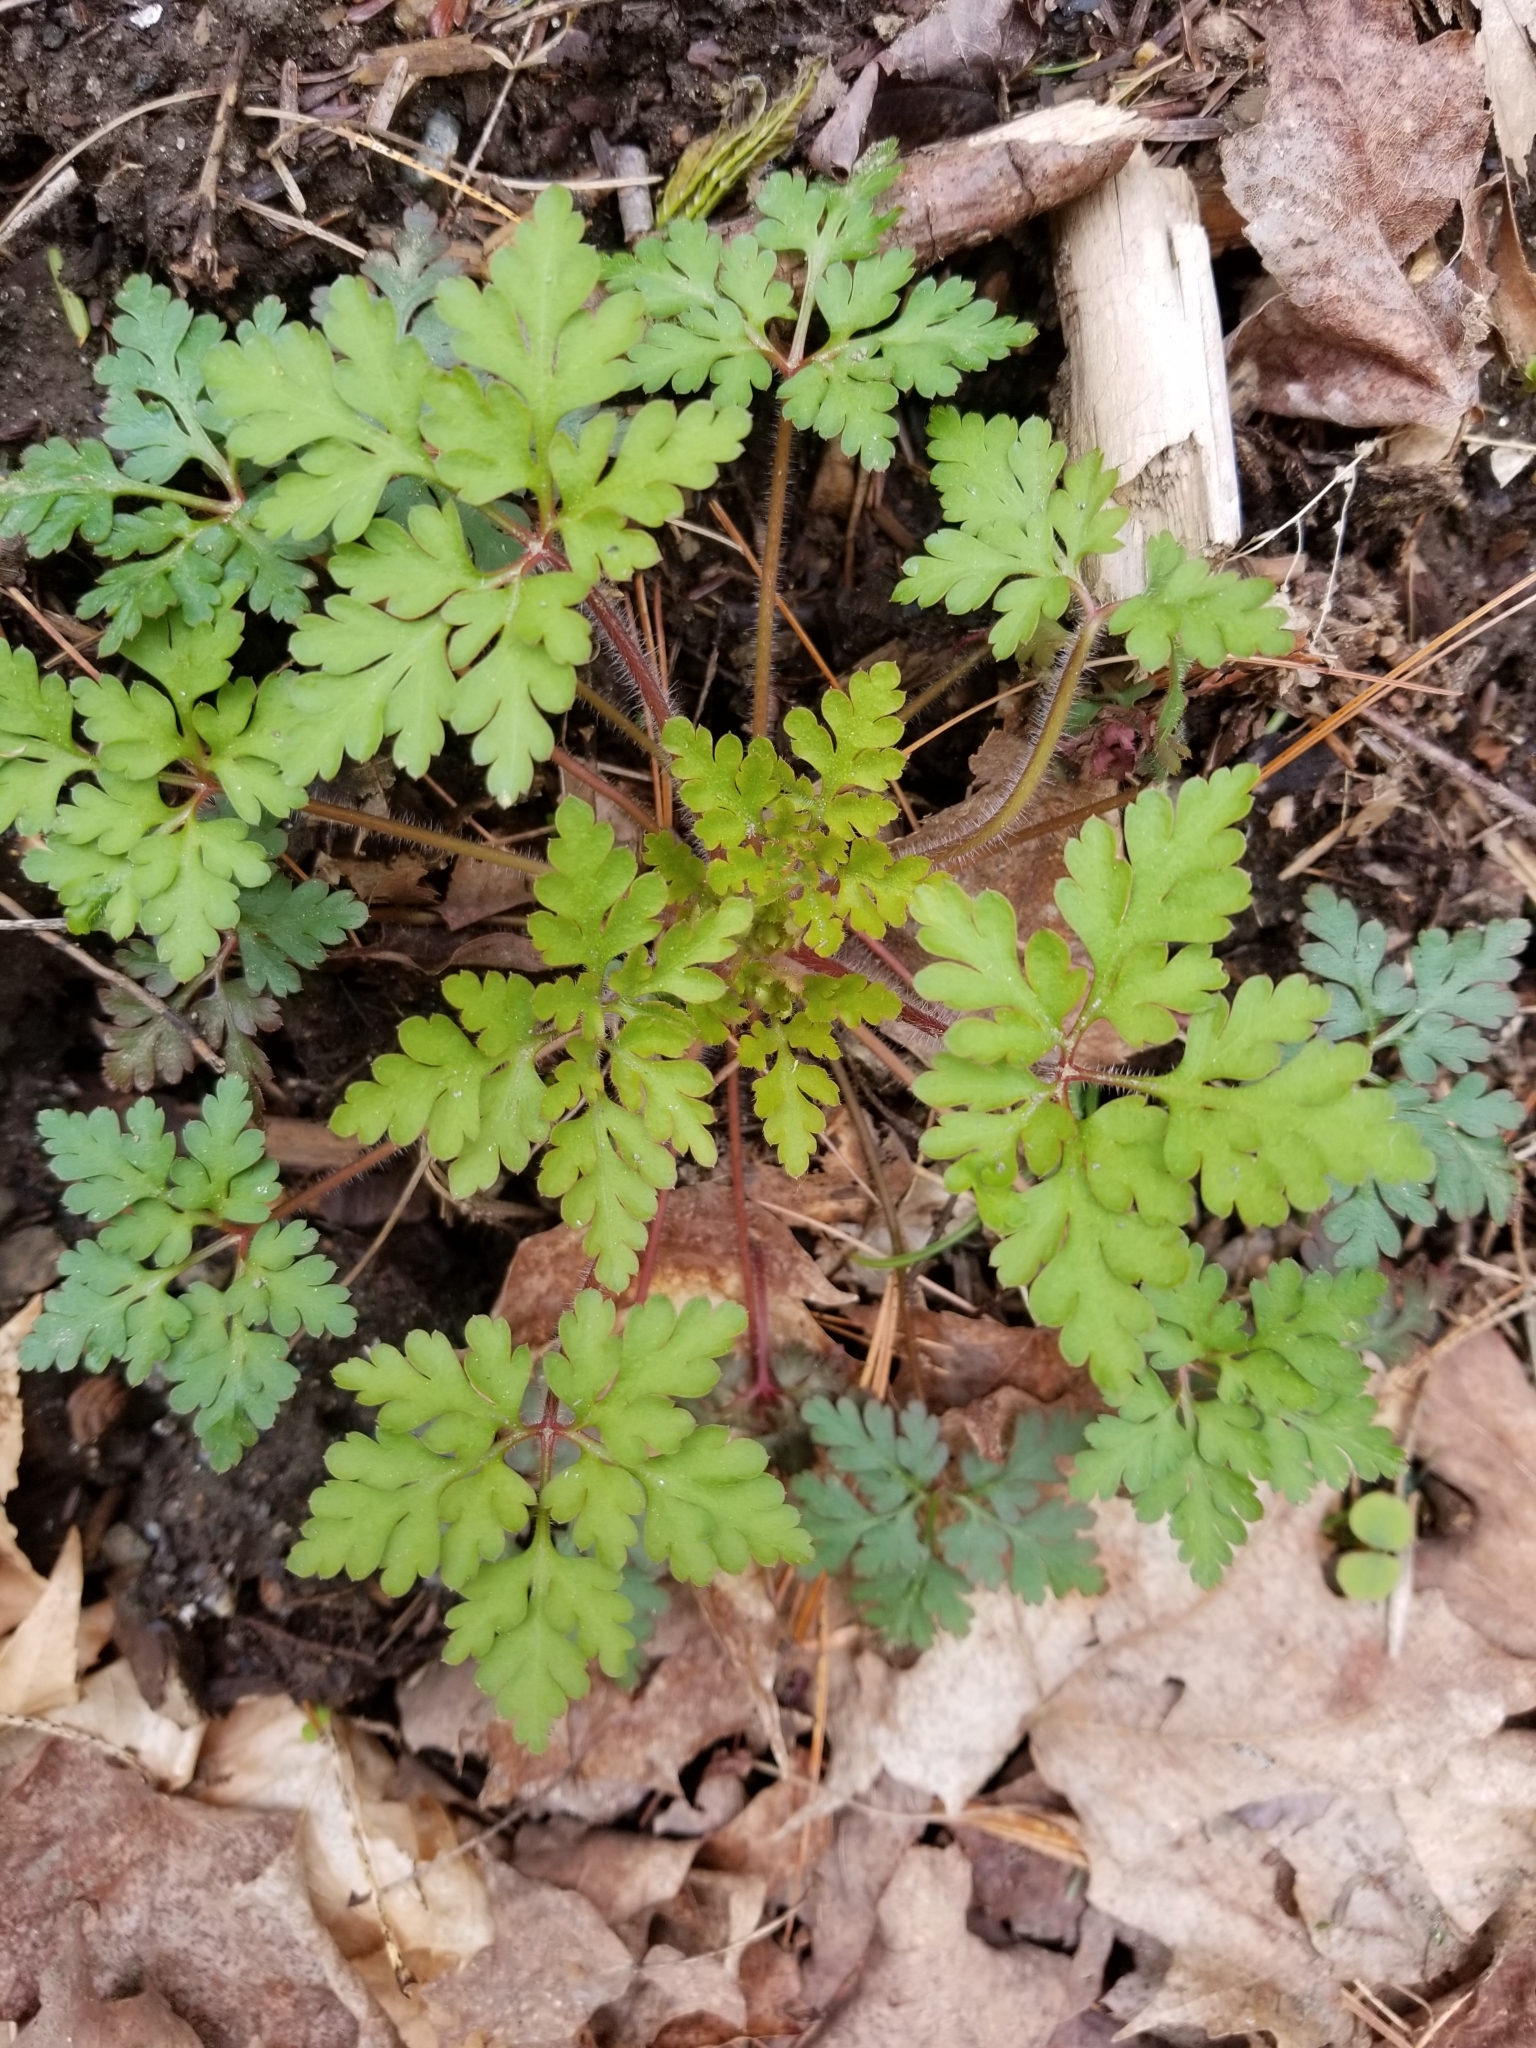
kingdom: Plantae
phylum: Tracheophyta
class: Magnoliopsida
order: Geraniales
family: Geraniaceae
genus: Geranium
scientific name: Geranium robertianum
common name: Herb-robert
